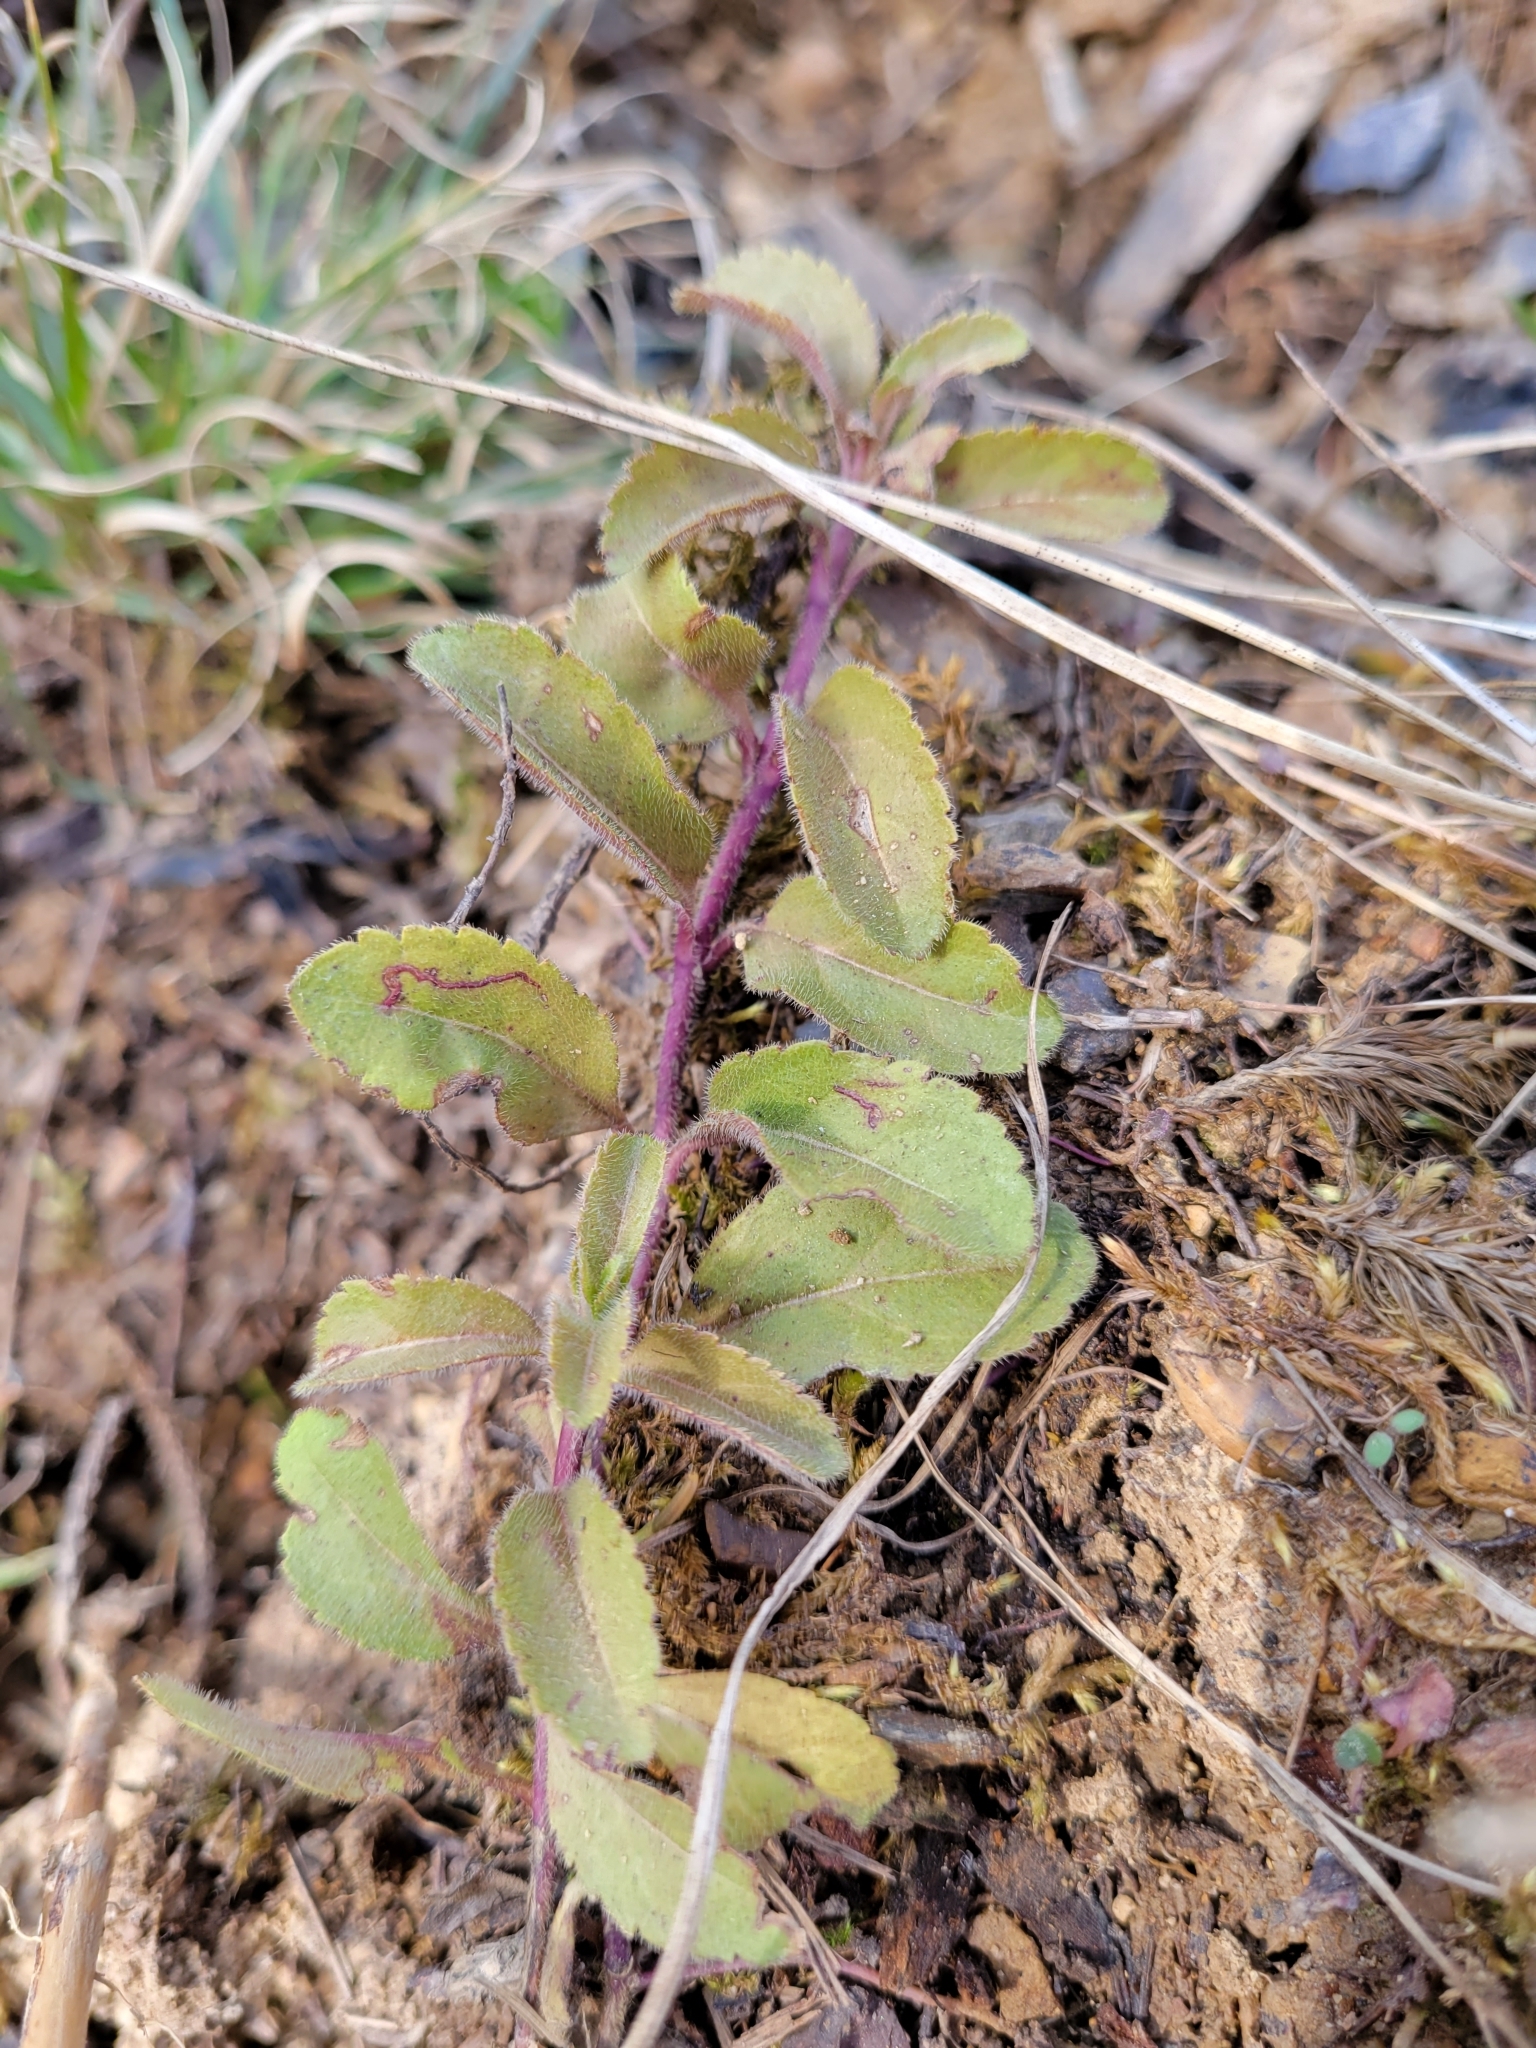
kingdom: Plantae
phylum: Tracheophyta
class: Magnoliopsida
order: Lamiales
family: Plantaginaceae
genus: Veronica
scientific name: Veronica officinalis
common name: Common speedwell
